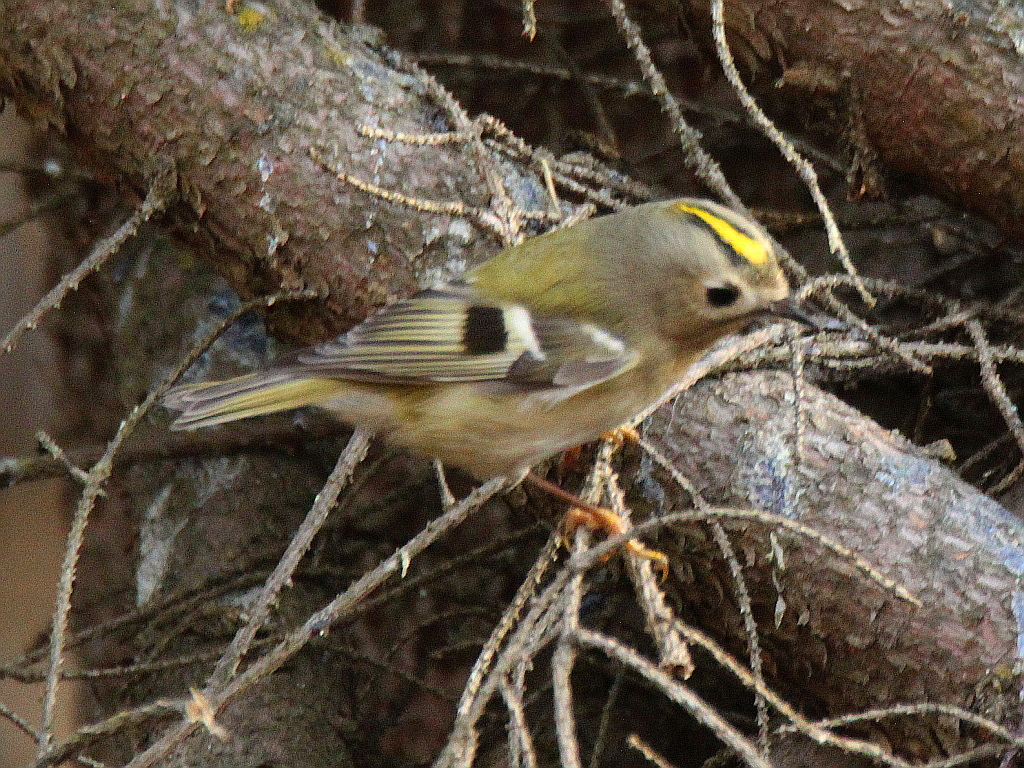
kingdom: Animalia
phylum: Chordata
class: Aves
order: Passeriformes
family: Regulidae
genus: Regulus
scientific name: Regulus regulus
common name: Goldcrest
